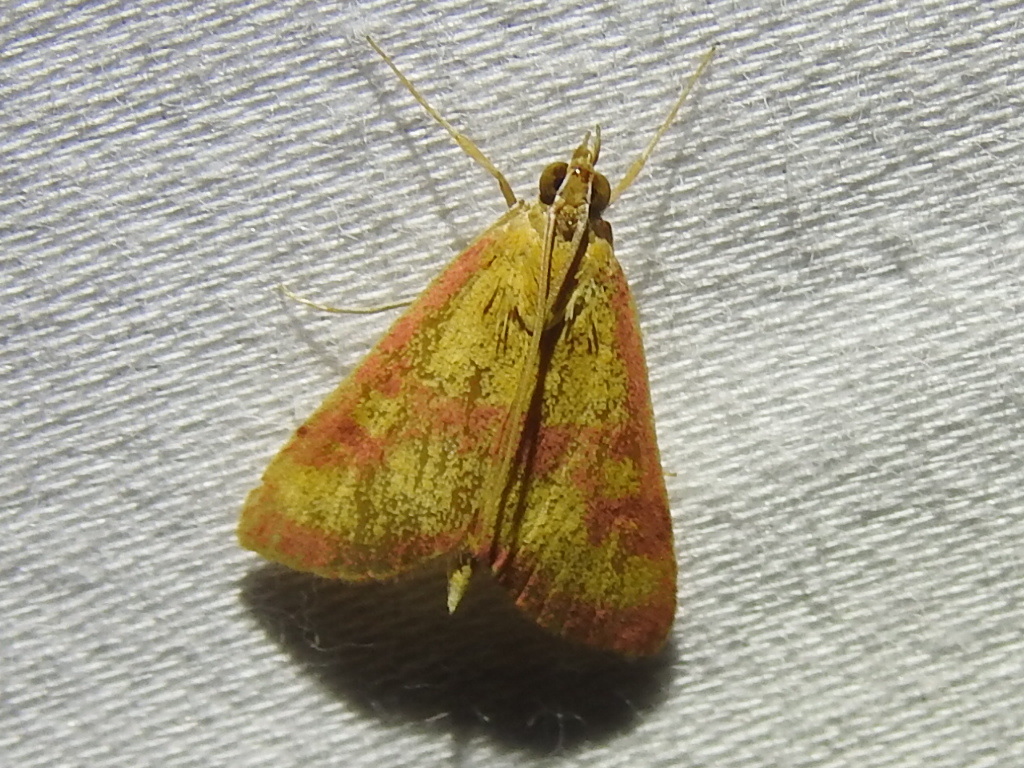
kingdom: Animalia
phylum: Arthropoda
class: Insecta
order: Lepidoptera
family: Crambidae
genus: Pyrausta
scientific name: Pyrausta laticlavia
